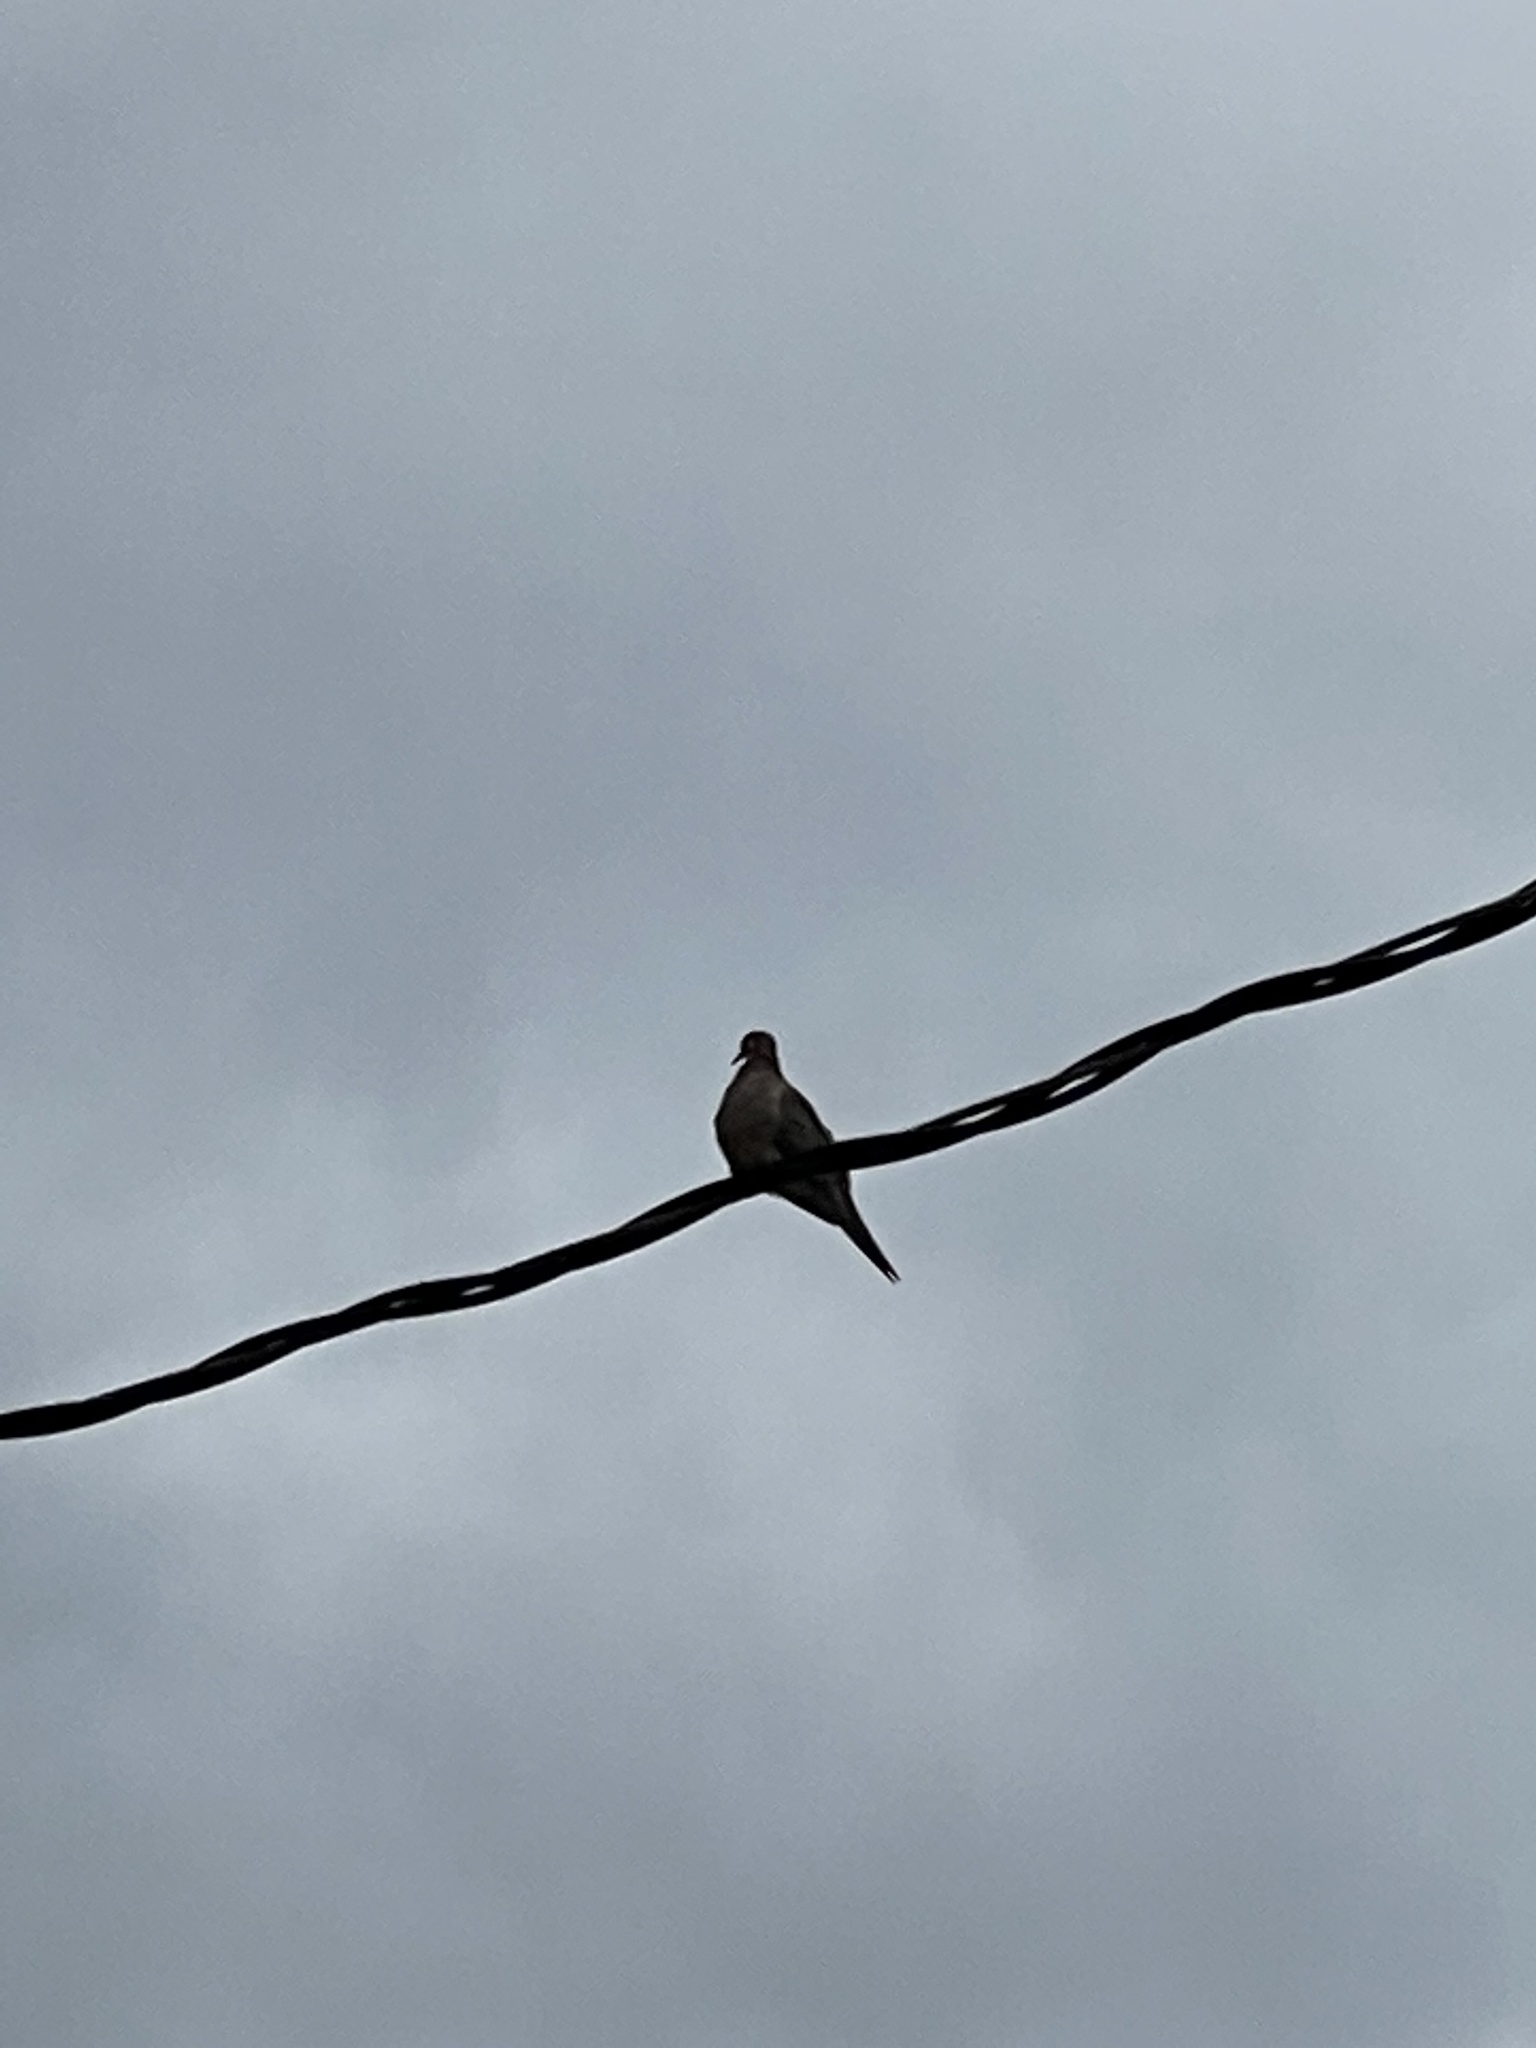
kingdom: Animalia
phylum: Chordata
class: Aves
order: Columbiformes
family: Columbidae
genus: Zenaida
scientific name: Zenaida macroura
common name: Mourning dove
